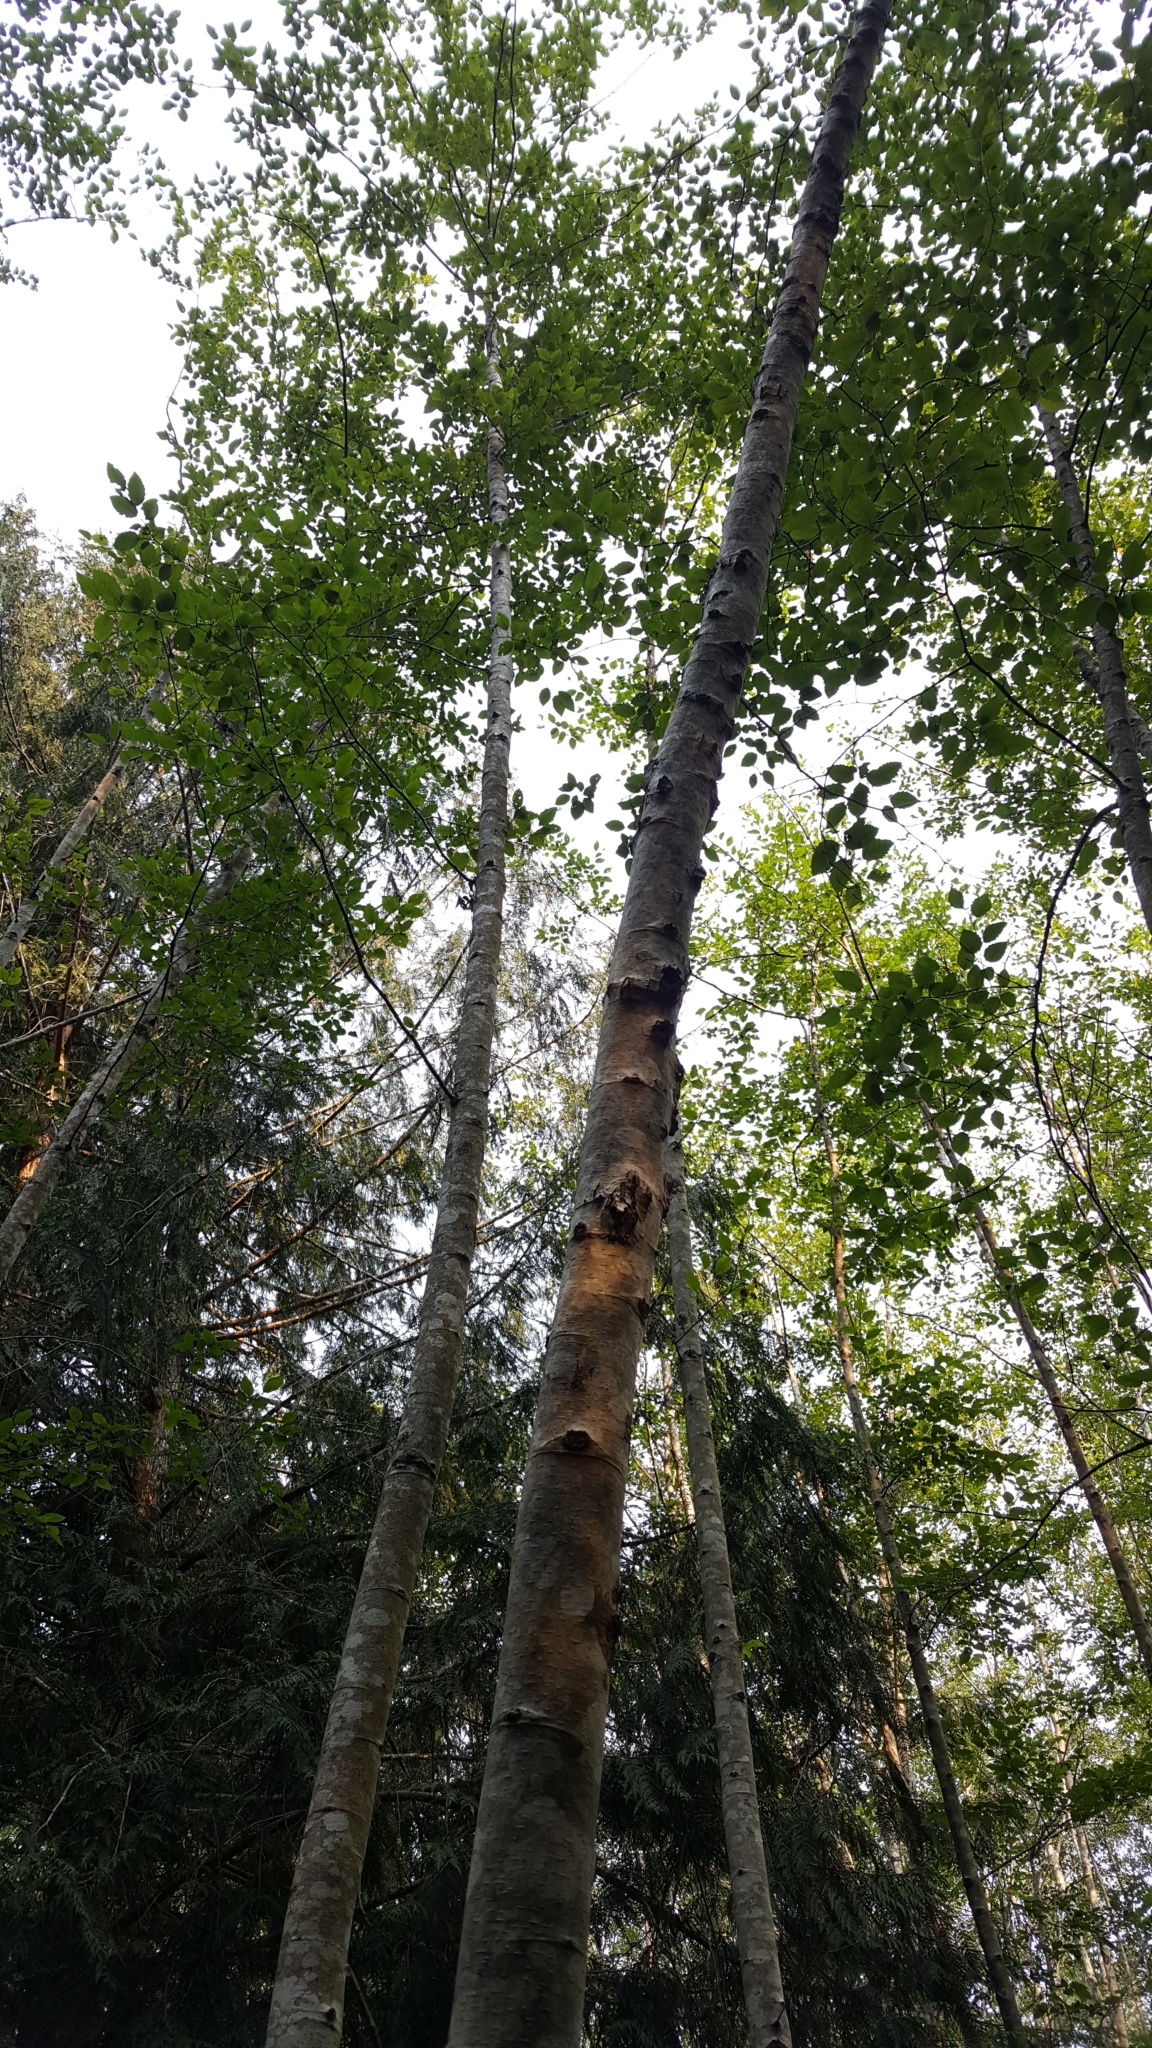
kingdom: Plantae
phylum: Tracheophyta
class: Magnoliopsida
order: Fagales
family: Betulaceae
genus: Alnus
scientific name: Alnus rubra
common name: Red alder
